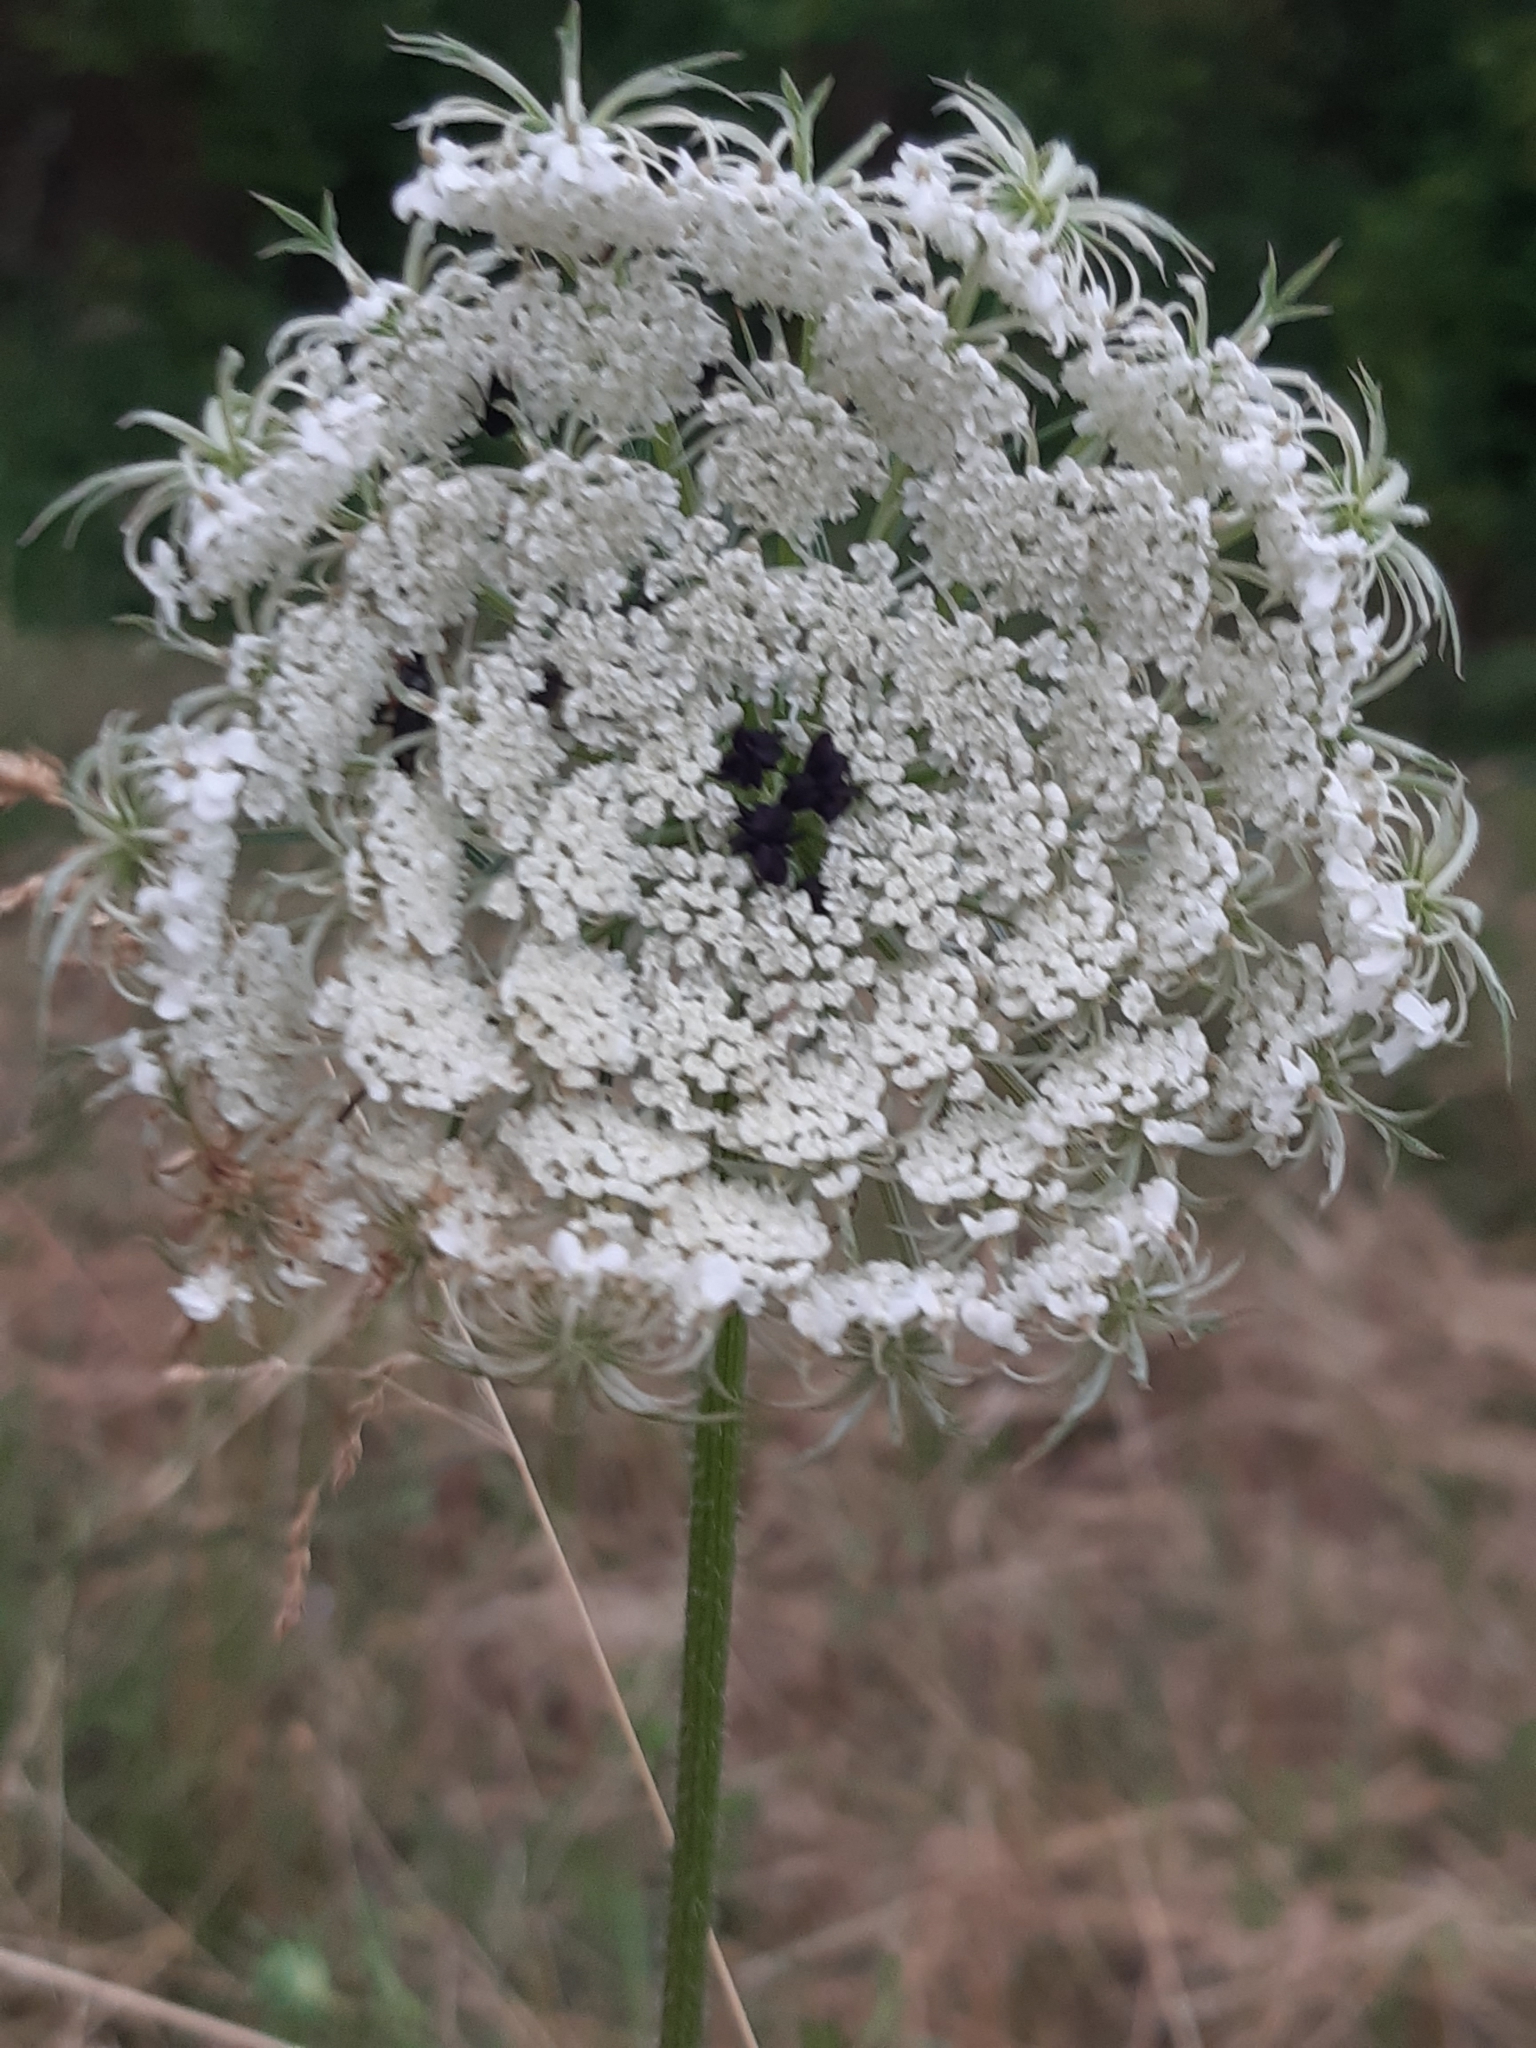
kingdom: Plantae
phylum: Tracheophyta
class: Magnoliopsida
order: Apiales
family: Apiaceae
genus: Daucus
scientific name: Daucus carota
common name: Wild carrot
